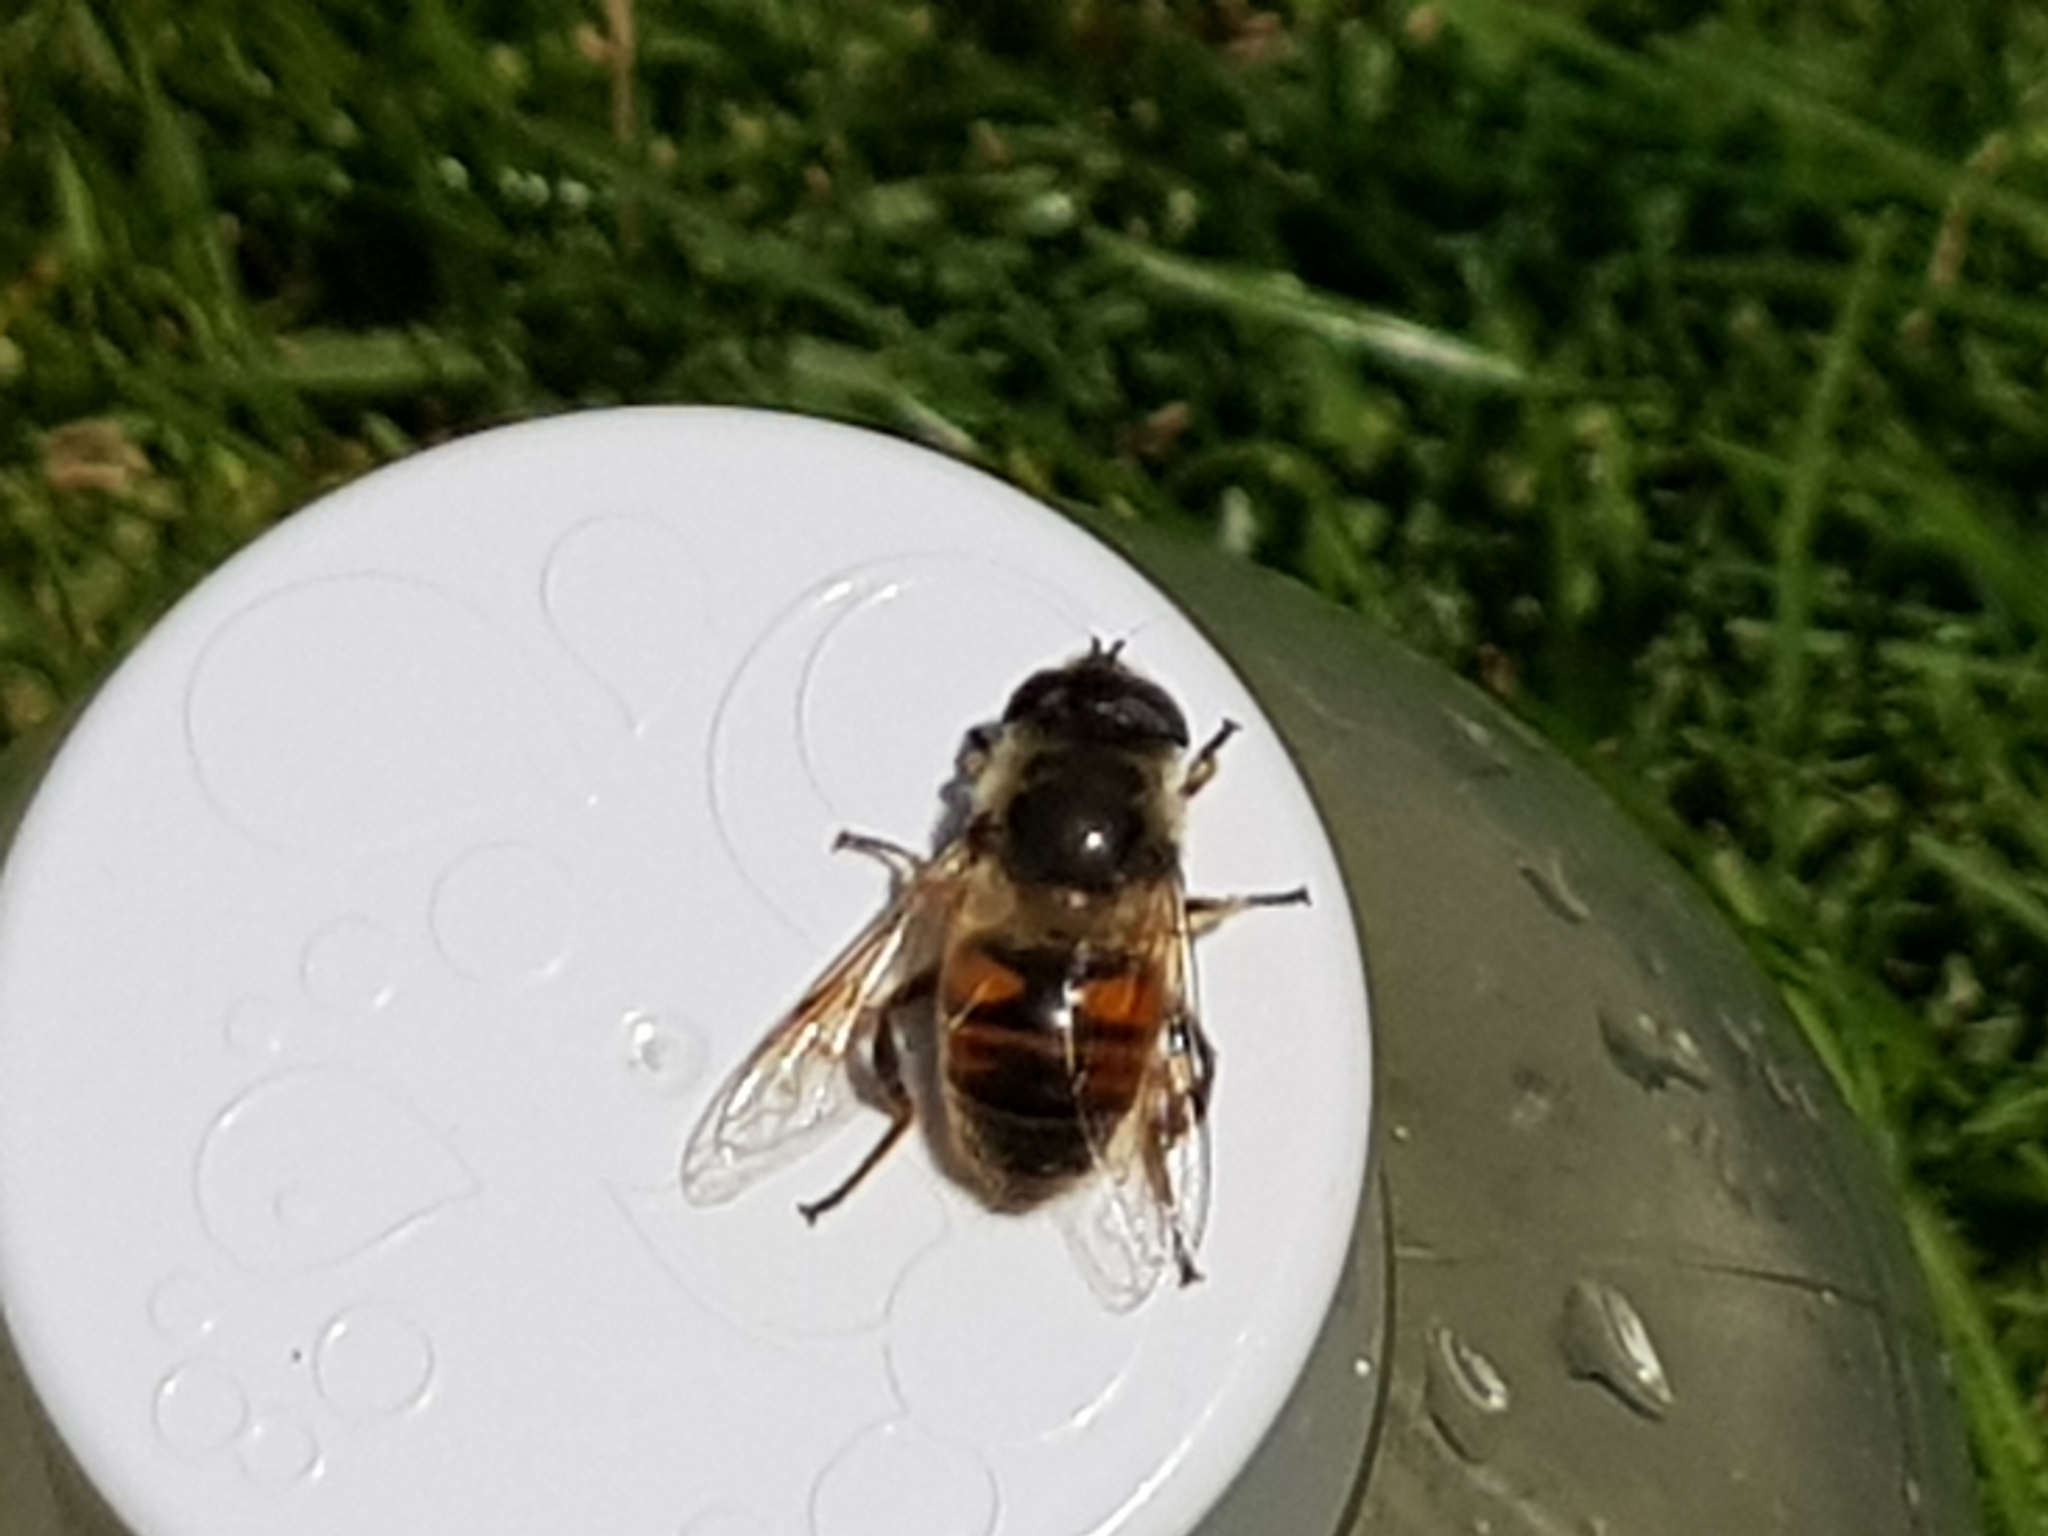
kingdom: Animalia
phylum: Arthropoda
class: Insecta
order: Diptera
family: Syrphidae
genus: Eristalis
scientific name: Eristalis tenax
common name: Drone fly
